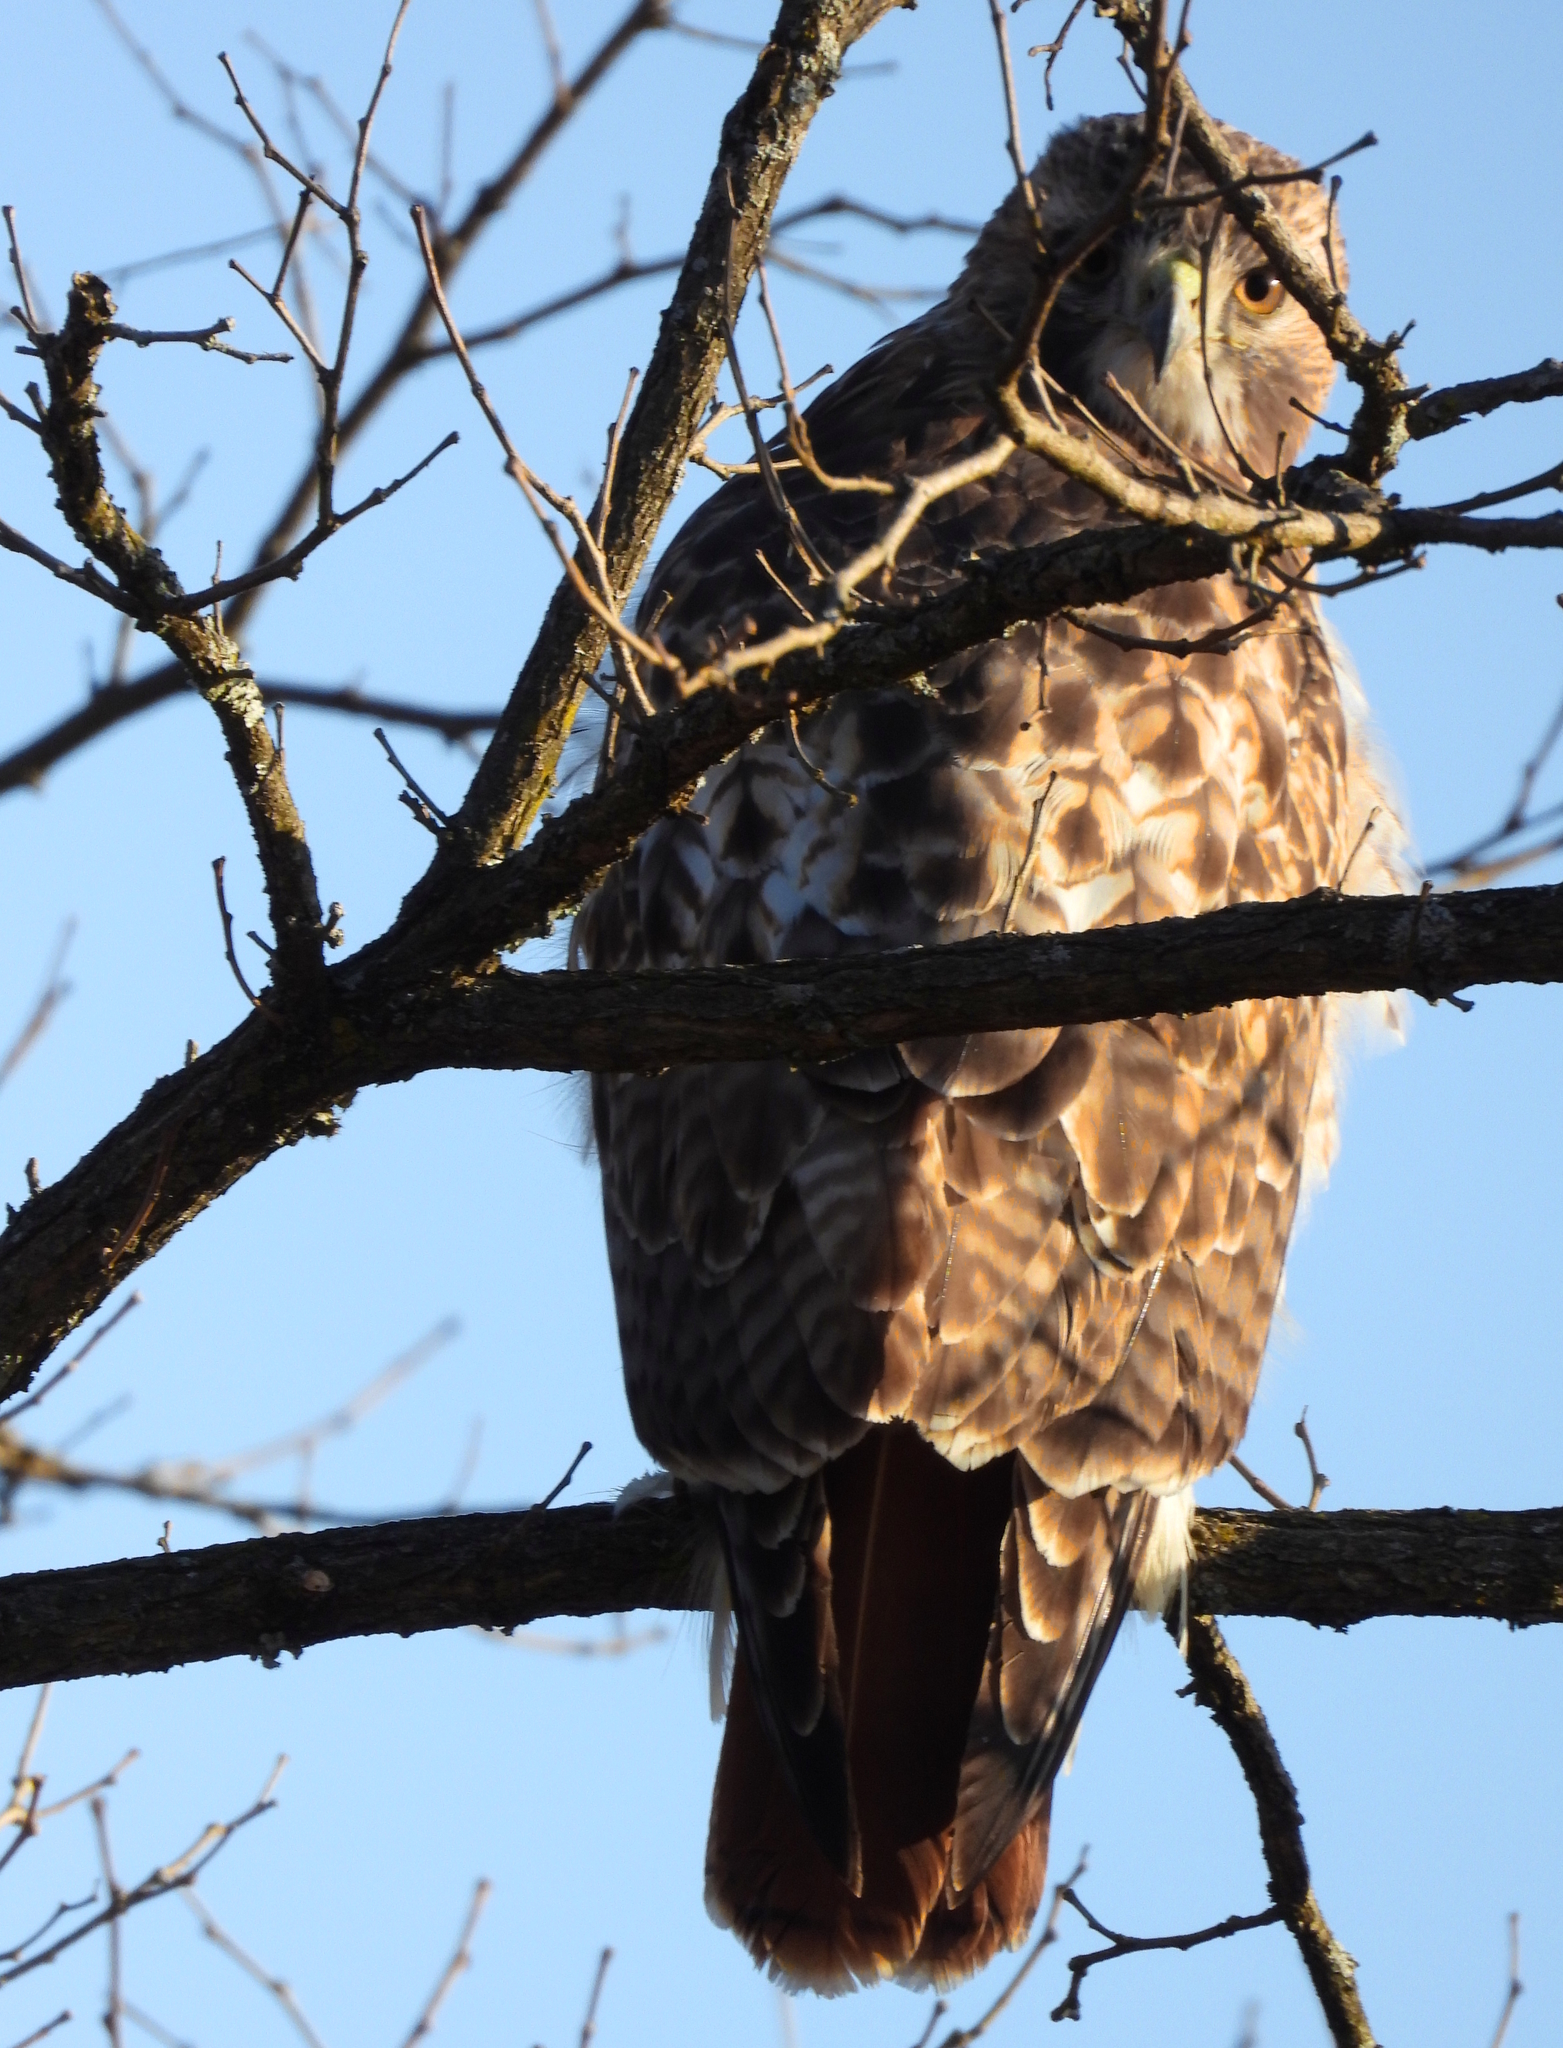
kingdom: Animalia
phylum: Chordata
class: Aves
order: Accipitriformes
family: Accipitridae
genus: Buteo
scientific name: Buteo jamaicensis
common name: Red-tailed hawk
